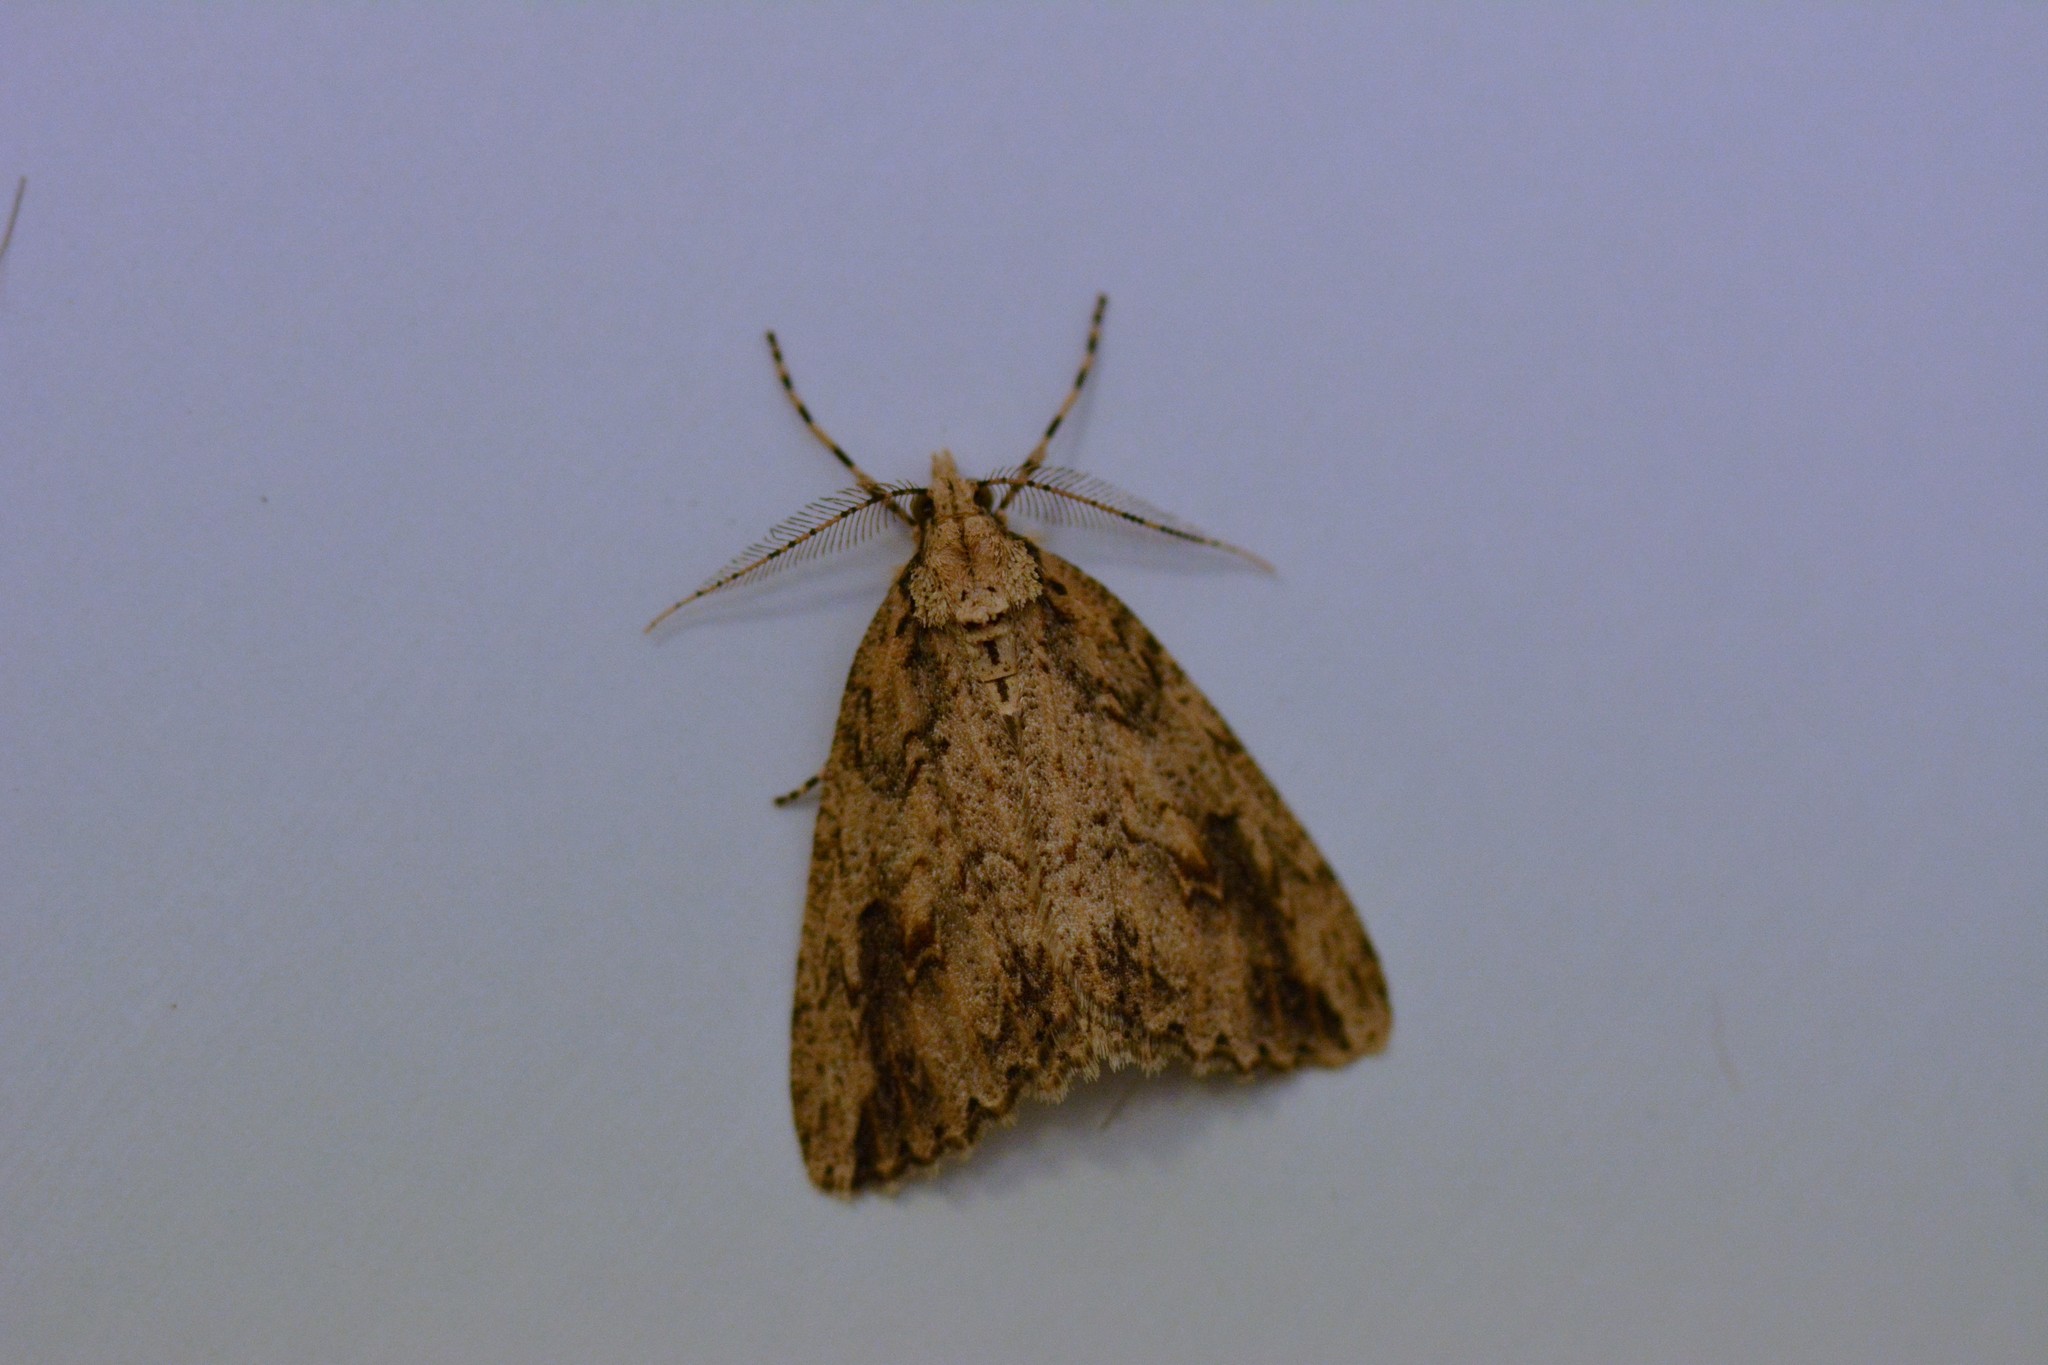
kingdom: Animalia
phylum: Arthropoda
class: Insecta
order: Lepidoptera
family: Geometridae
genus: Pseudocoremia
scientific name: Pseudocoremia rudisata
